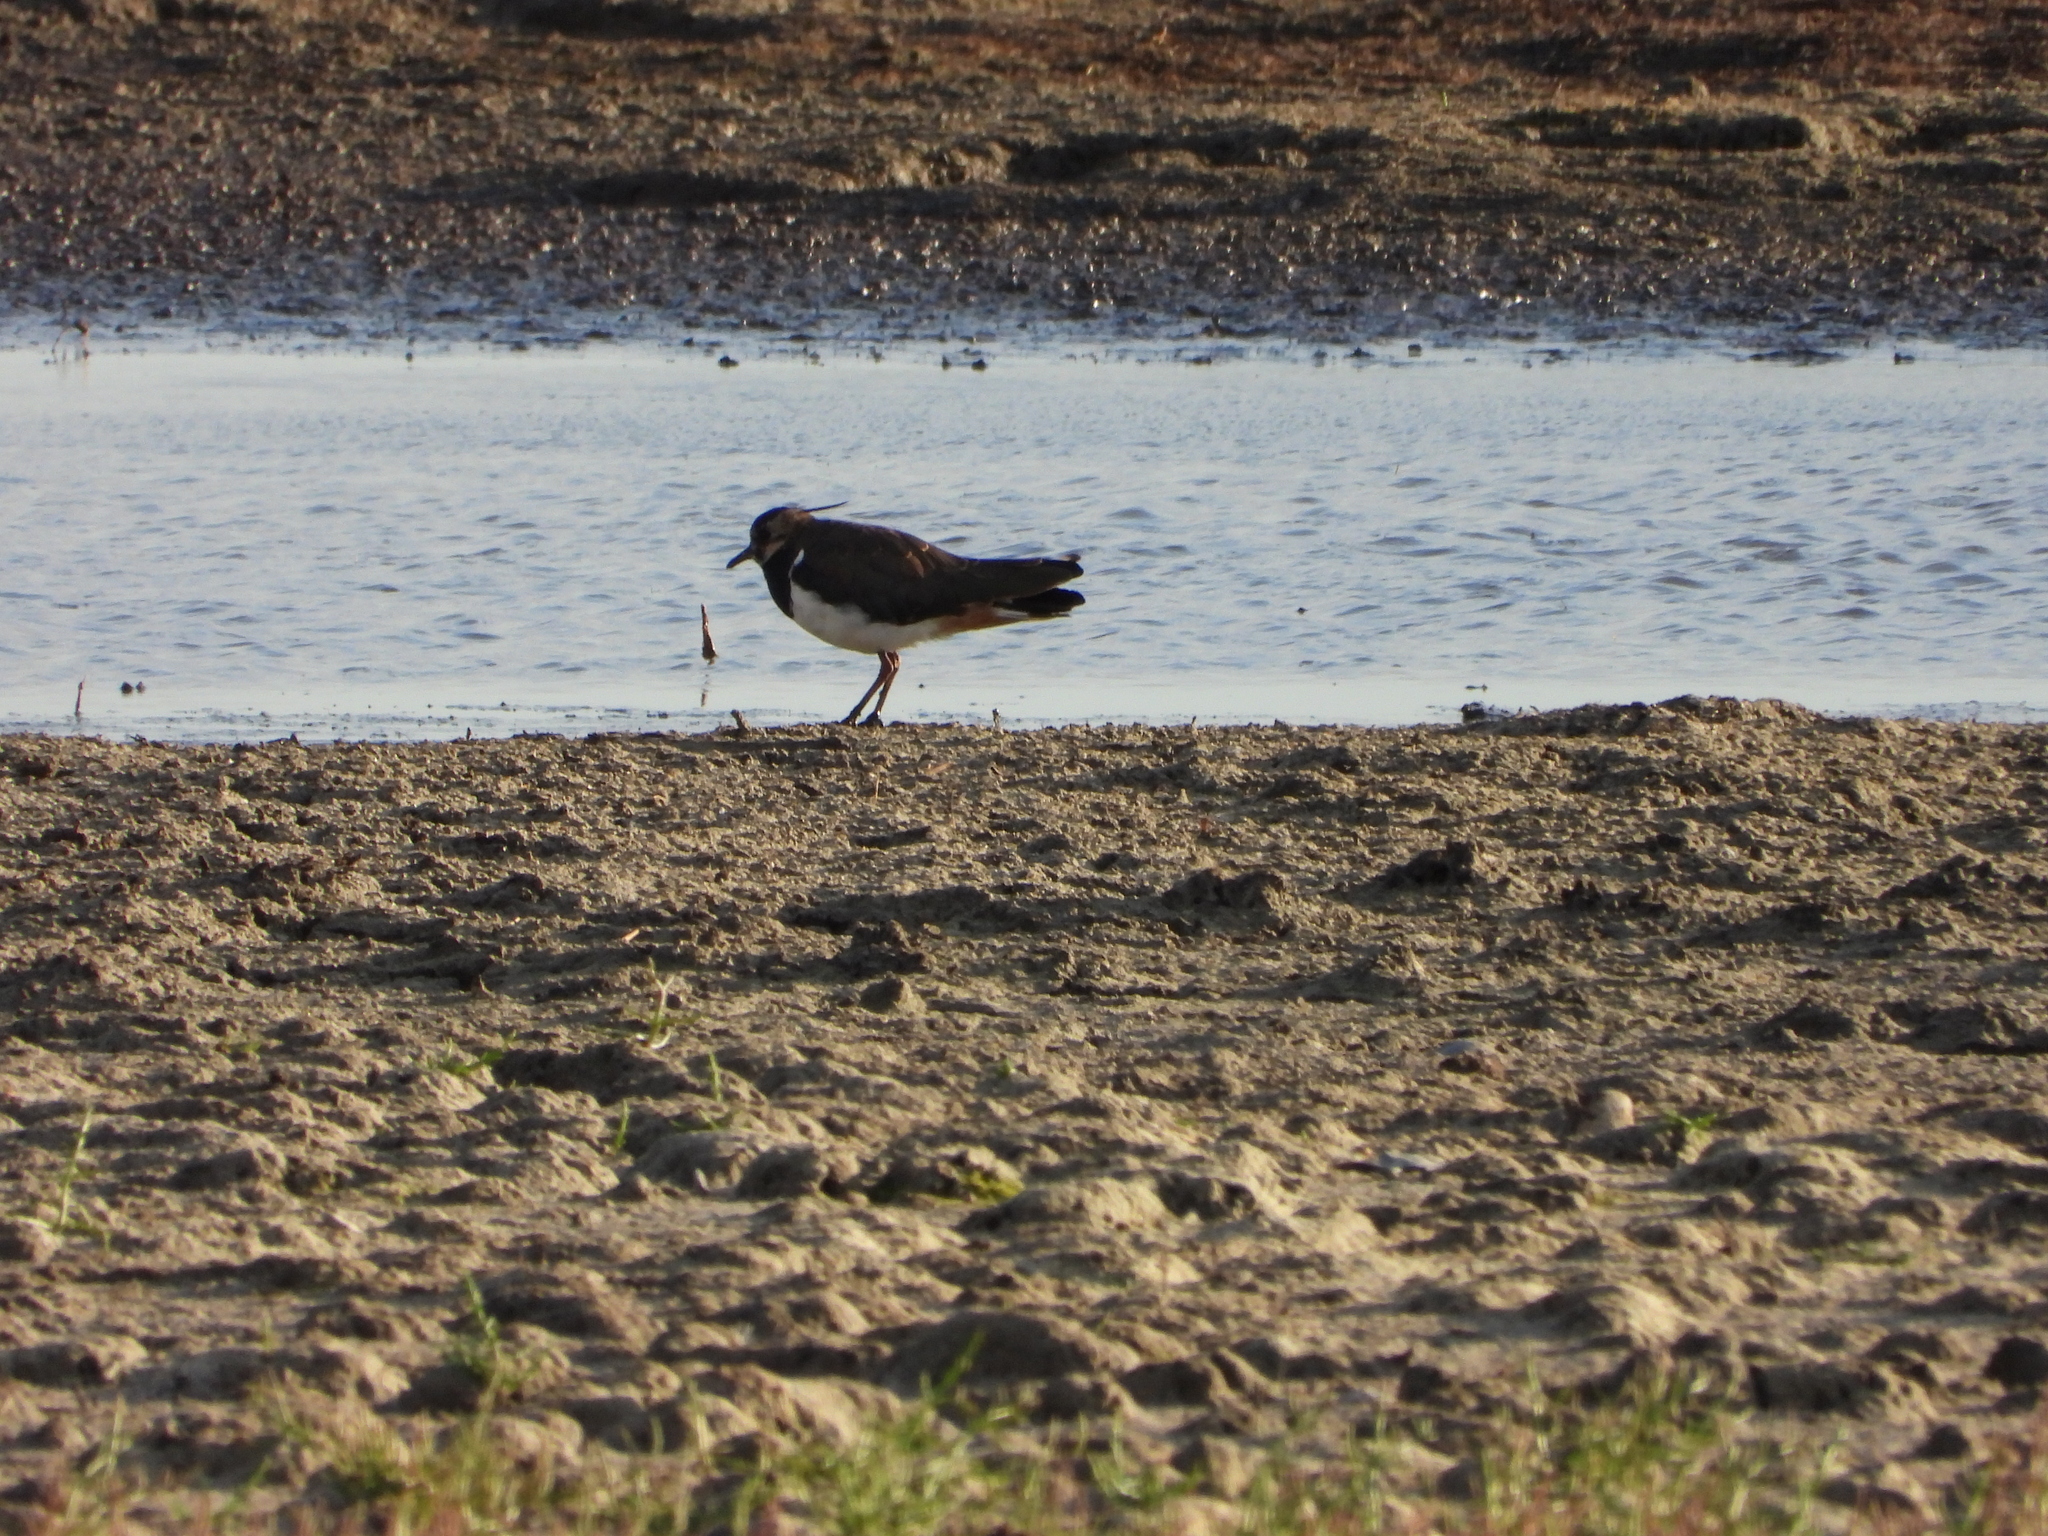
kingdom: Animalia
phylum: Chordata
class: Aves
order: Charadriiformes
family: Charadriidae
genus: Vanellus
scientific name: Vanellus vanellus
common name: Northern lapwing
